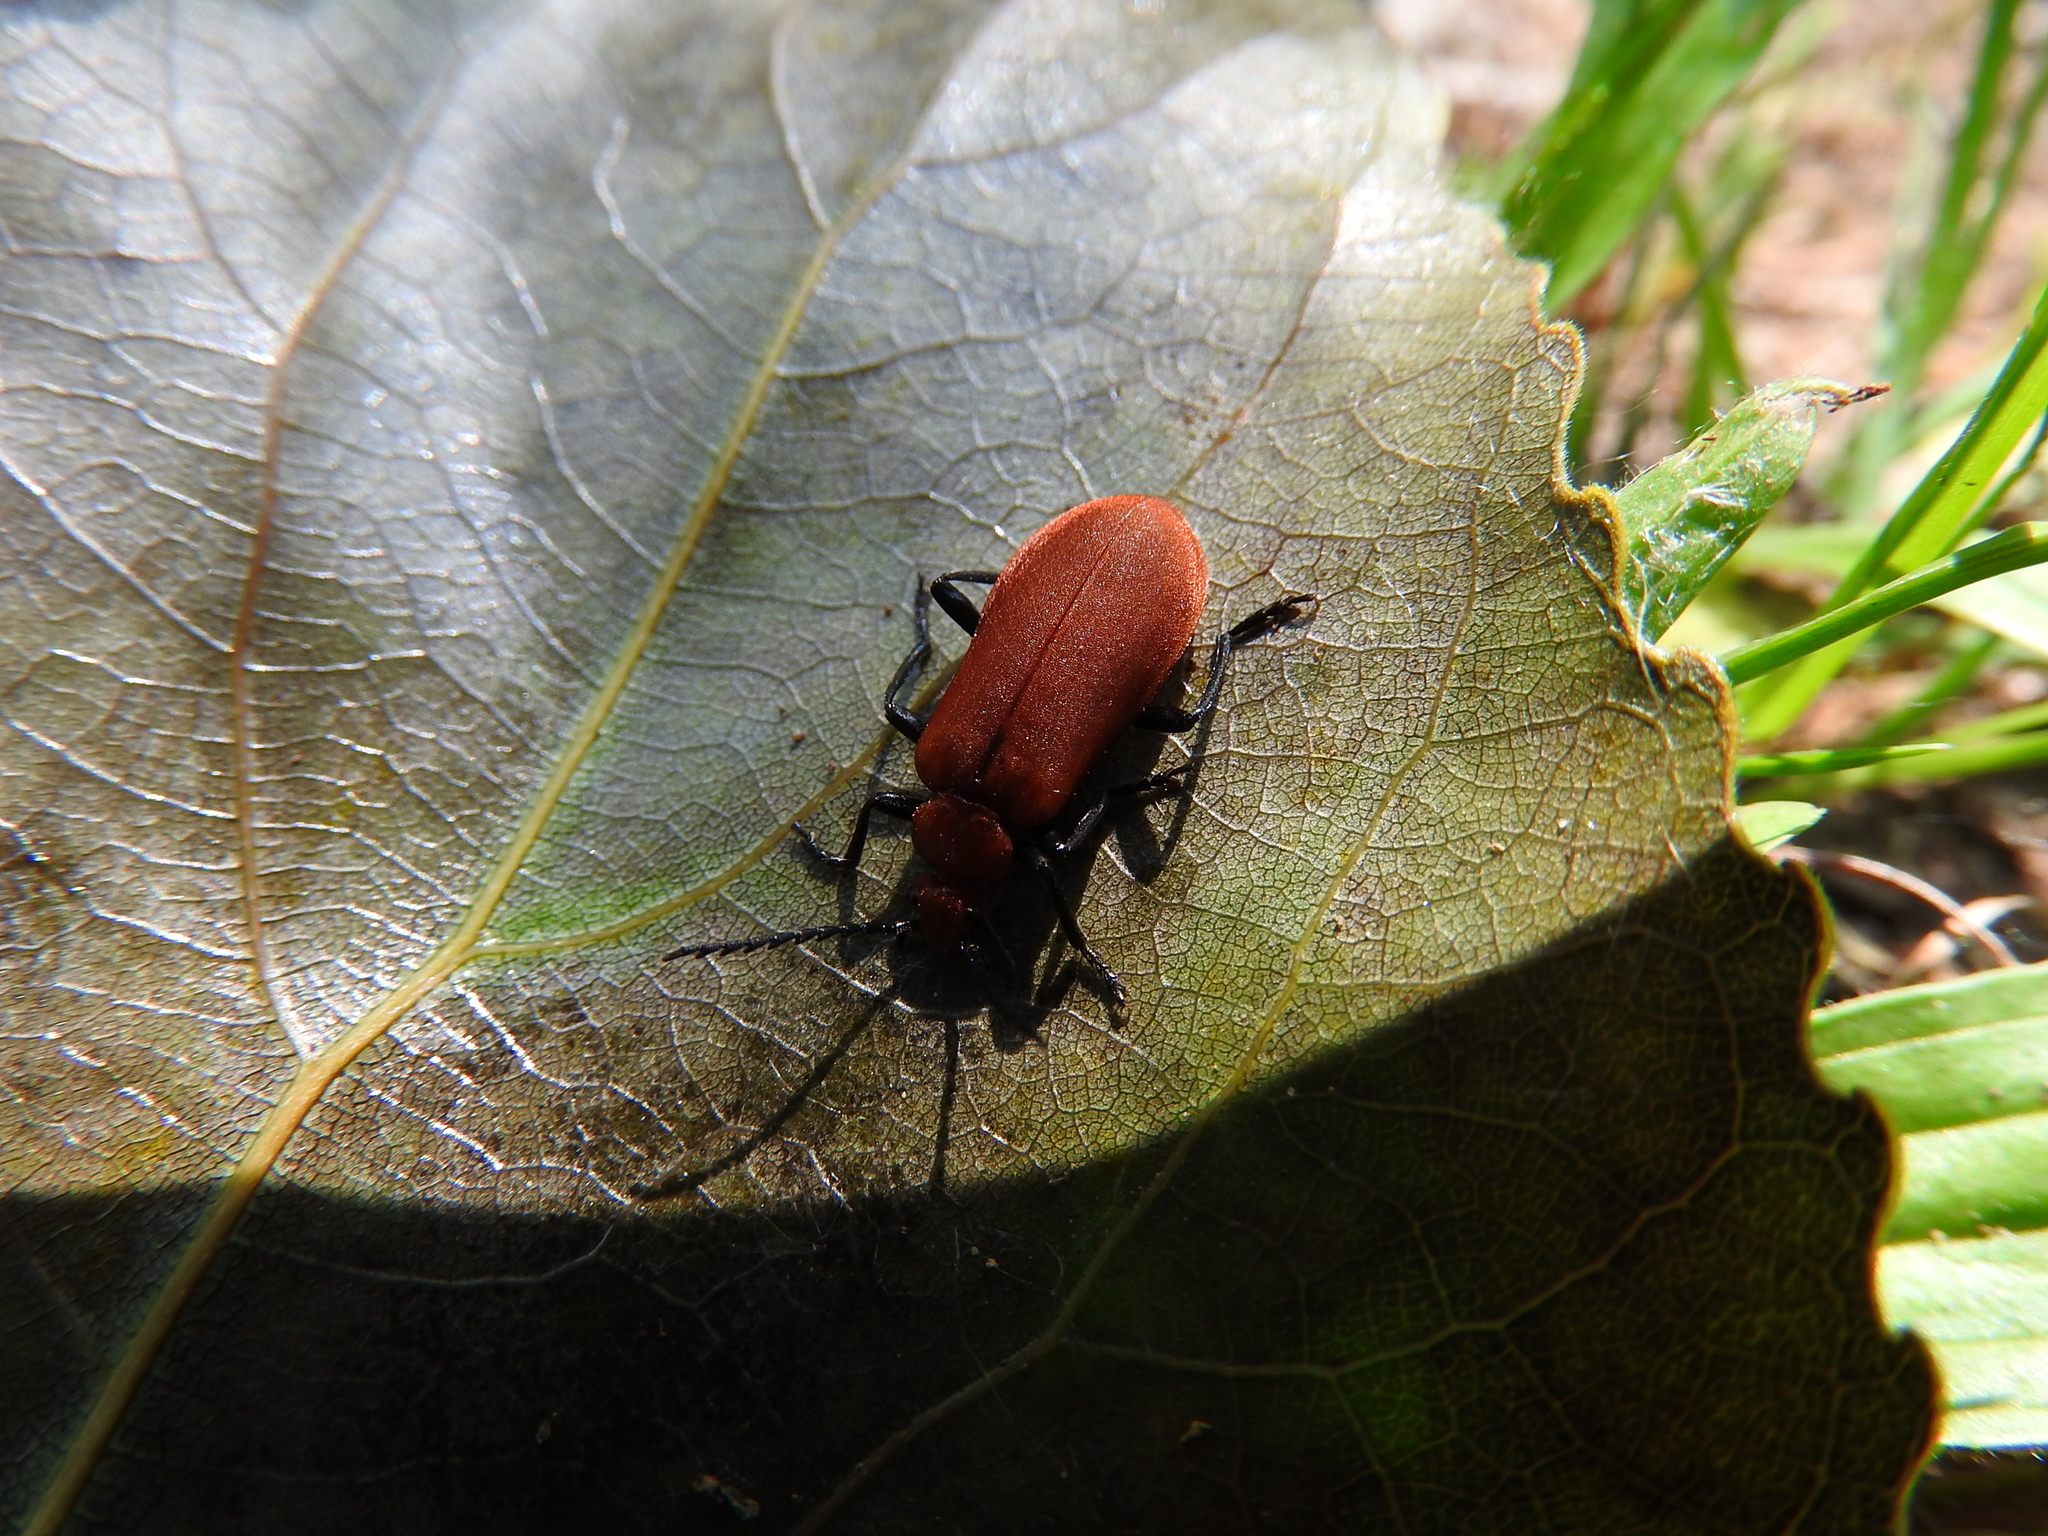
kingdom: Animalia
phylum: Arthropoda
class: Insecta
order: Coleoptera
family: Pyrochroidae
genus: Pyrochroa
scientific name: Pyrochroa serraticornis
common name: Red-headed cardinal beetle
